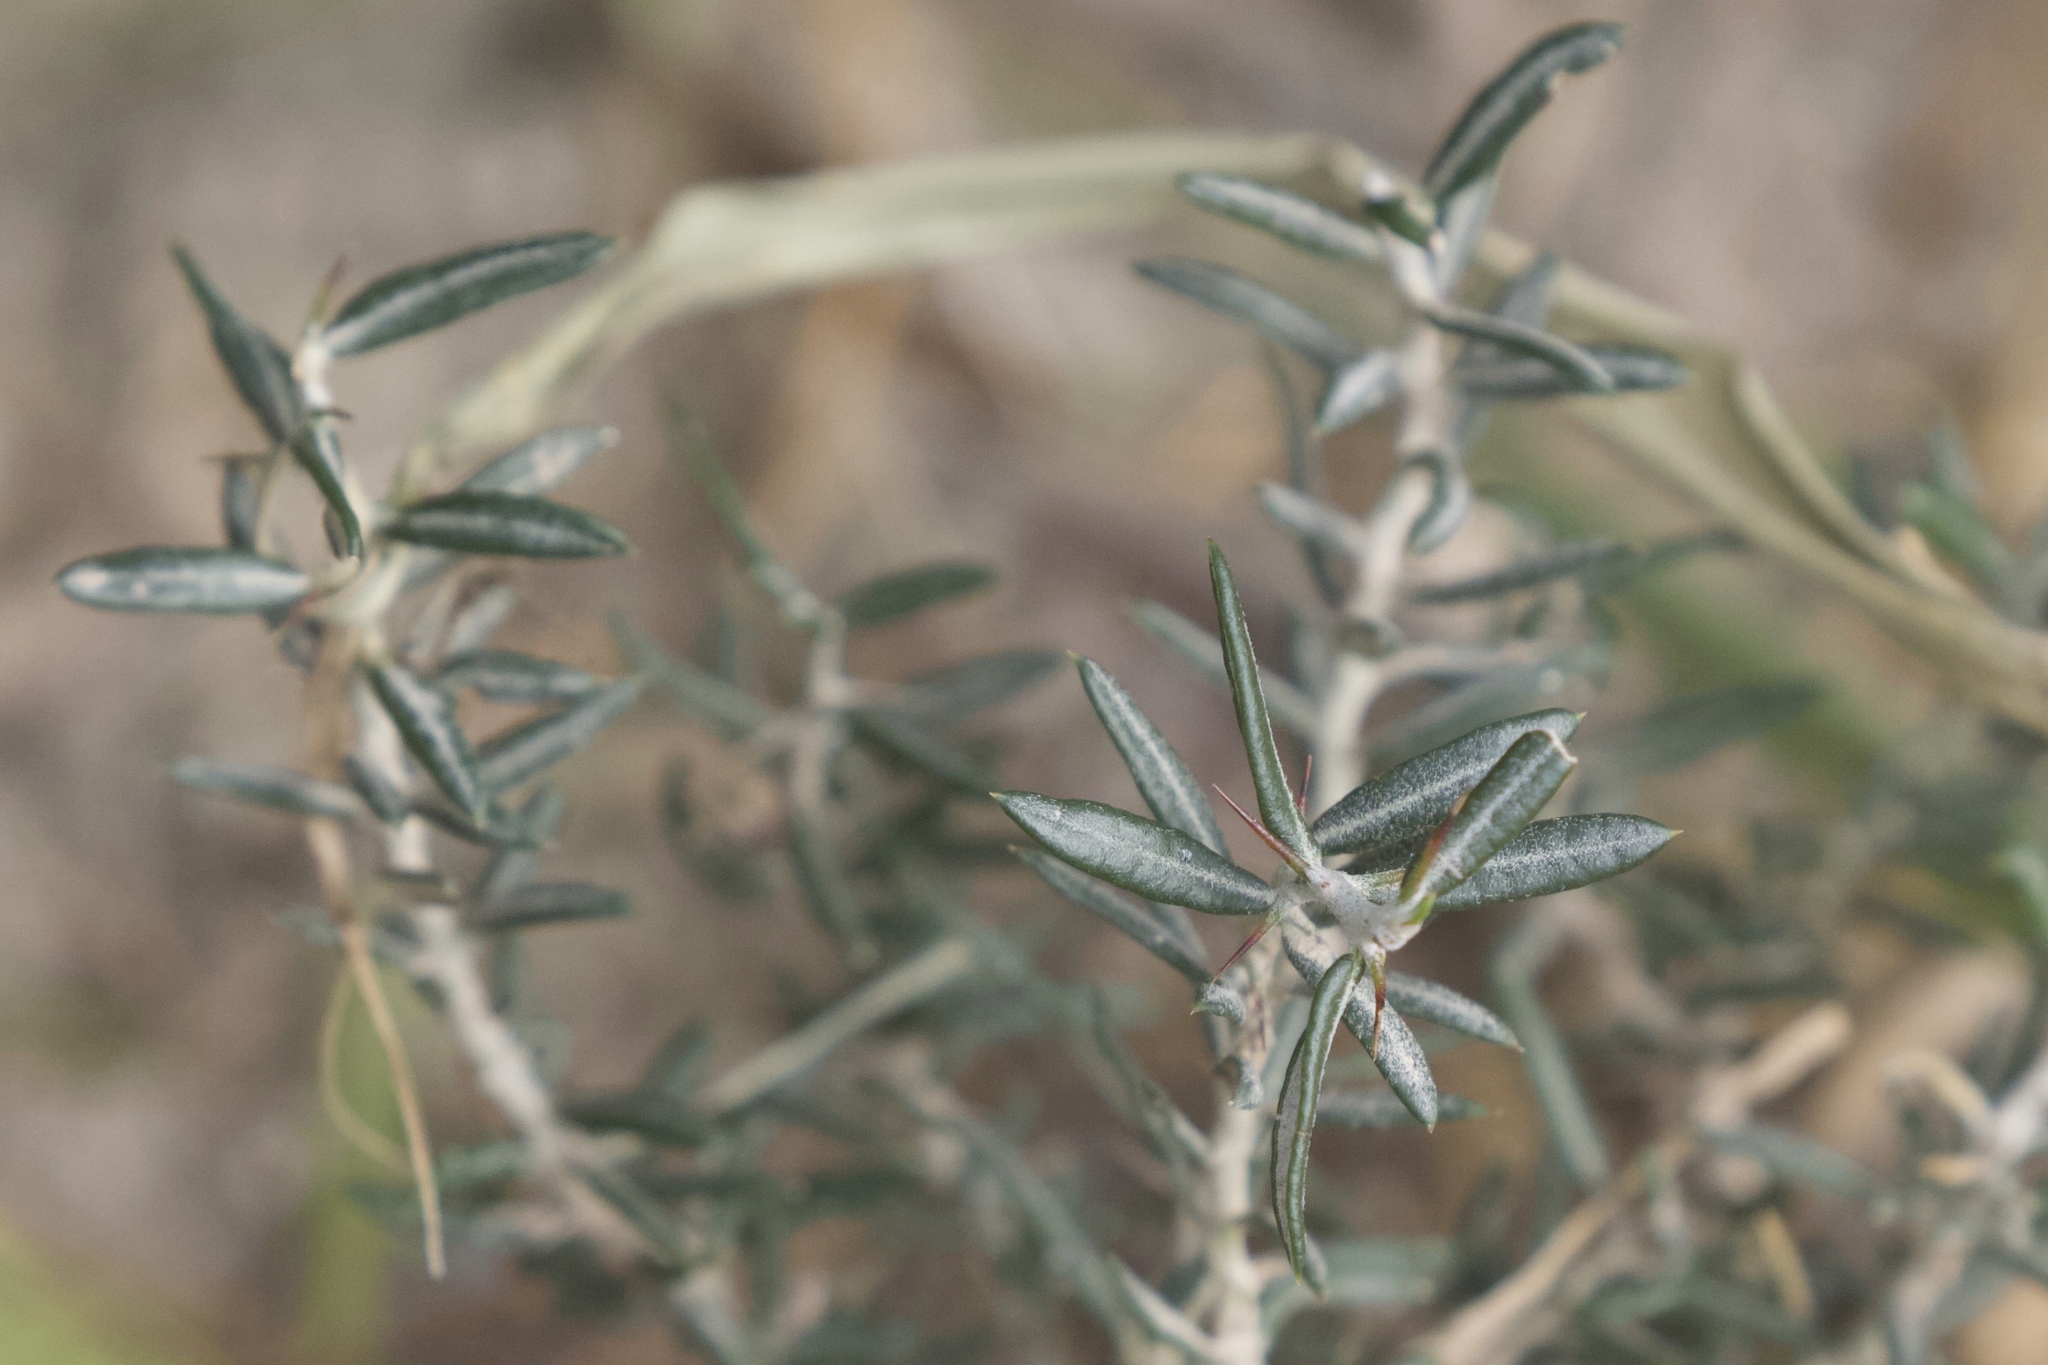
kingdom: Plantae
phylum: Tracheophyta
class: Magnoliopsida
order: Sapindales
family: Simaroubaceae
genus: Castela
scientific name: Castela erecta
